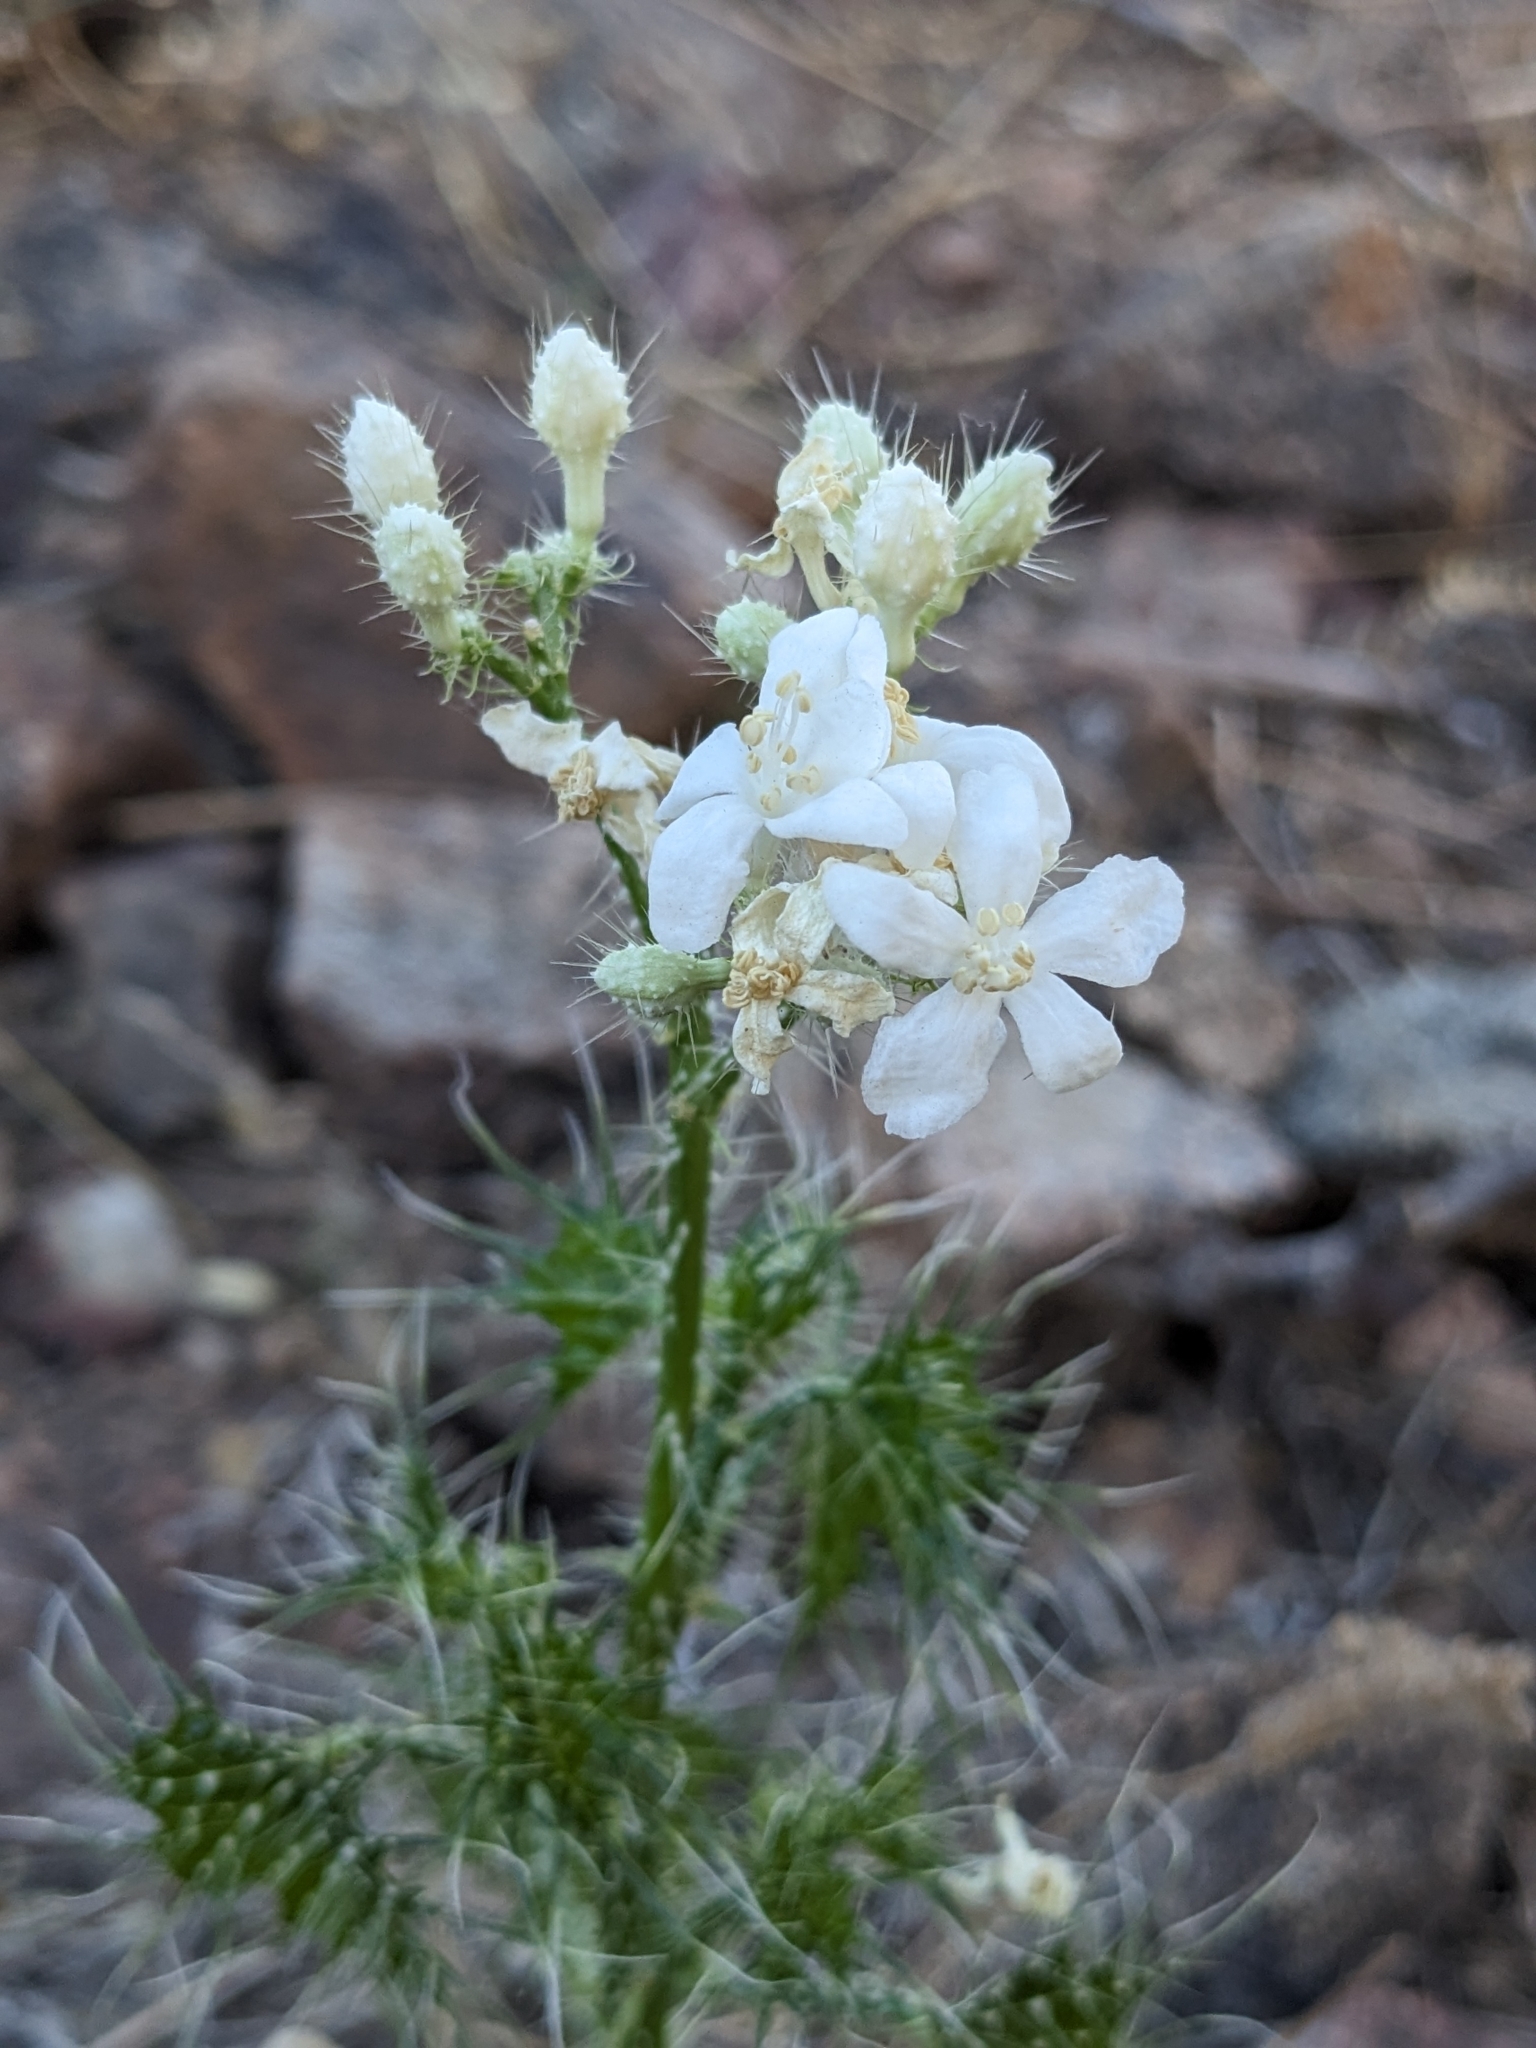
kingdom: Plantae
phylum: Tracheophyta
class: Magnoliopsida
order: Malpighiales
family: Euphorbiaceae
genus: Cnidoscolus
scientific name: Cnidoscolus angustidens
